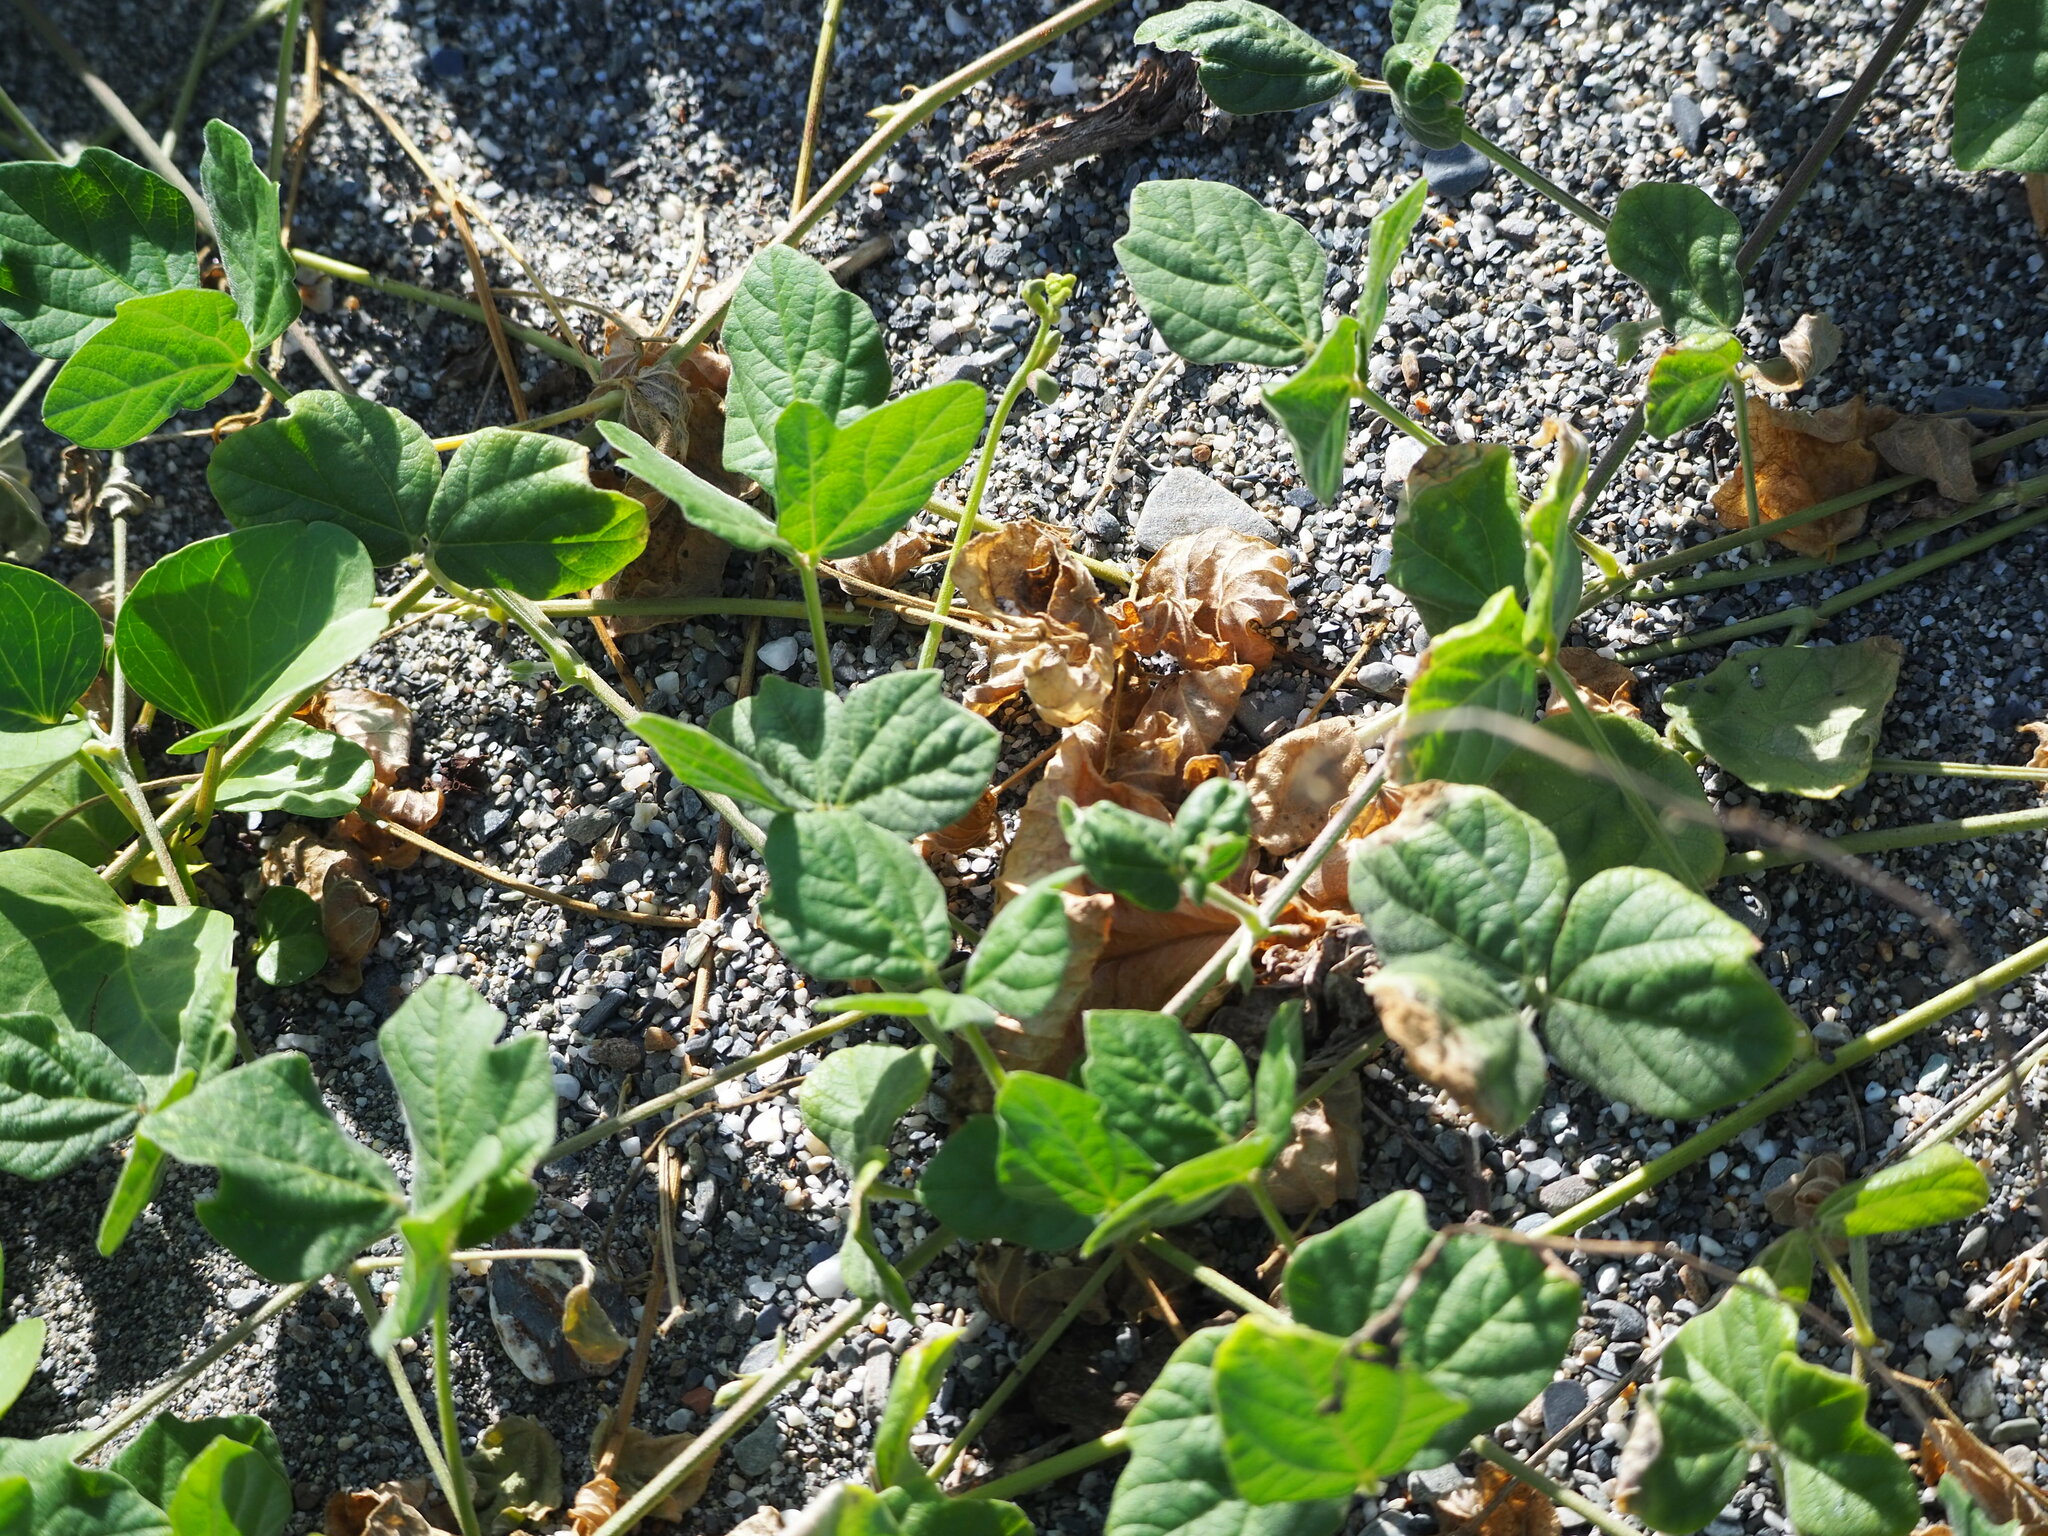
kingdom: Plantae
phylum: Tracheophyta
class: Magnoliopsida
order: Fabales
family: Fabaceae
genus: Macroptilium
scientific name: Macroptilium atropurpureum
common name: Purple bushbean
